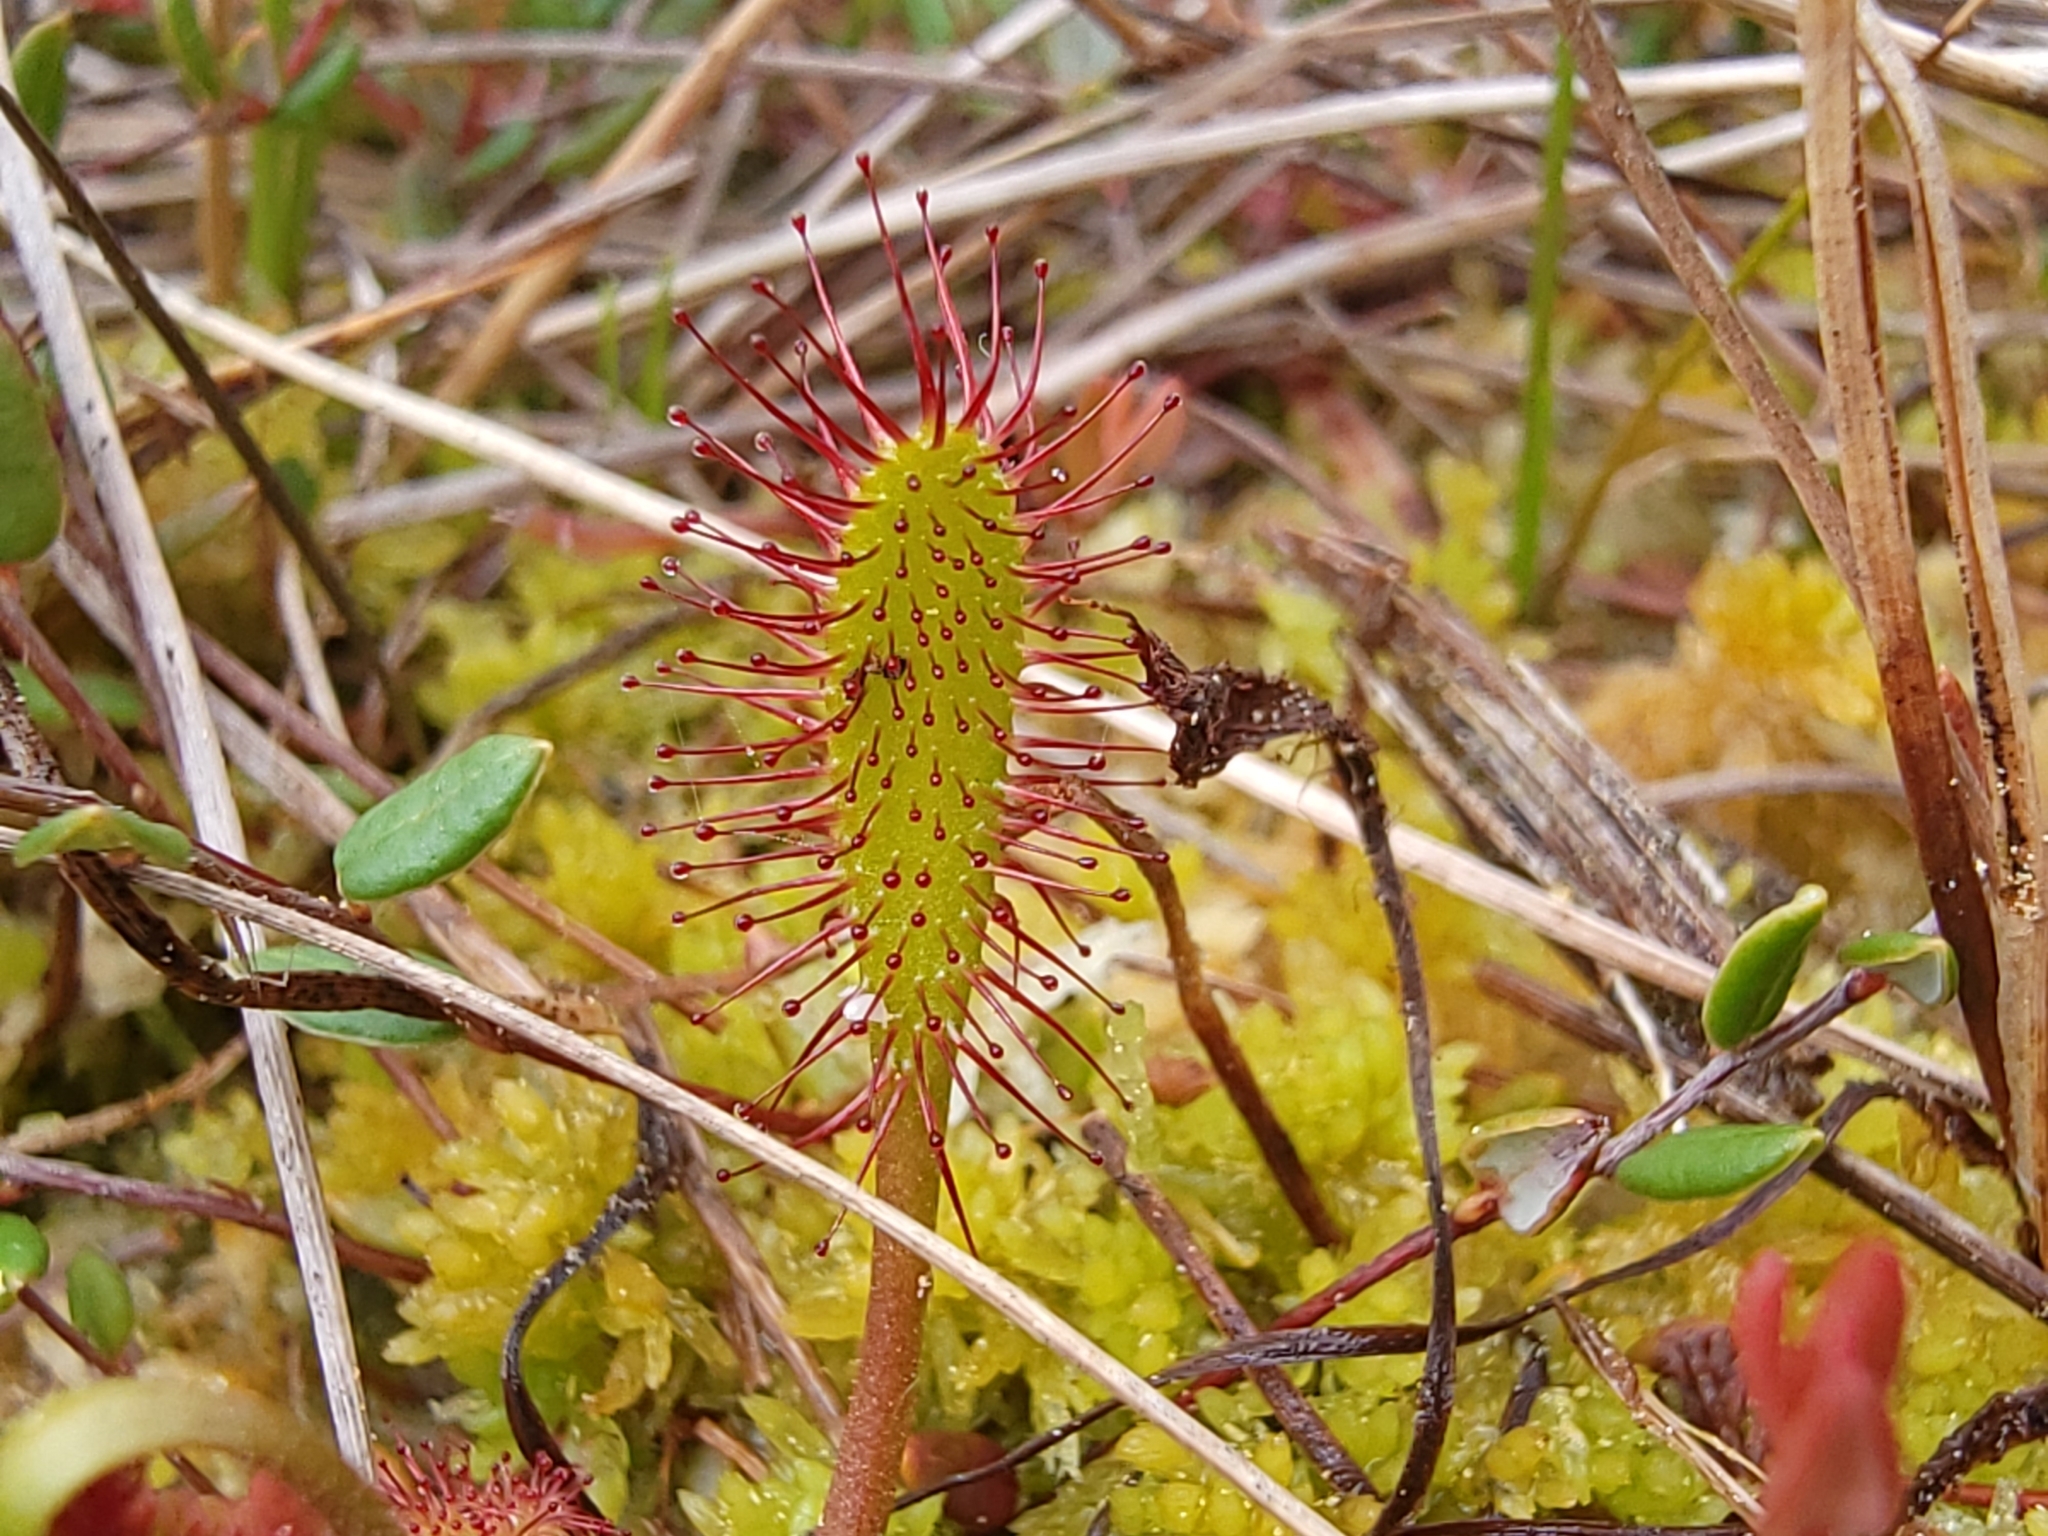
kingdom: Plantae
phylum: Tracheophyta
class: Magnoliopsida
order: Caryophyllales
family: Droseraceae
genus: Drosera
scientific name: Drosera anglica
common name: Great sundew
